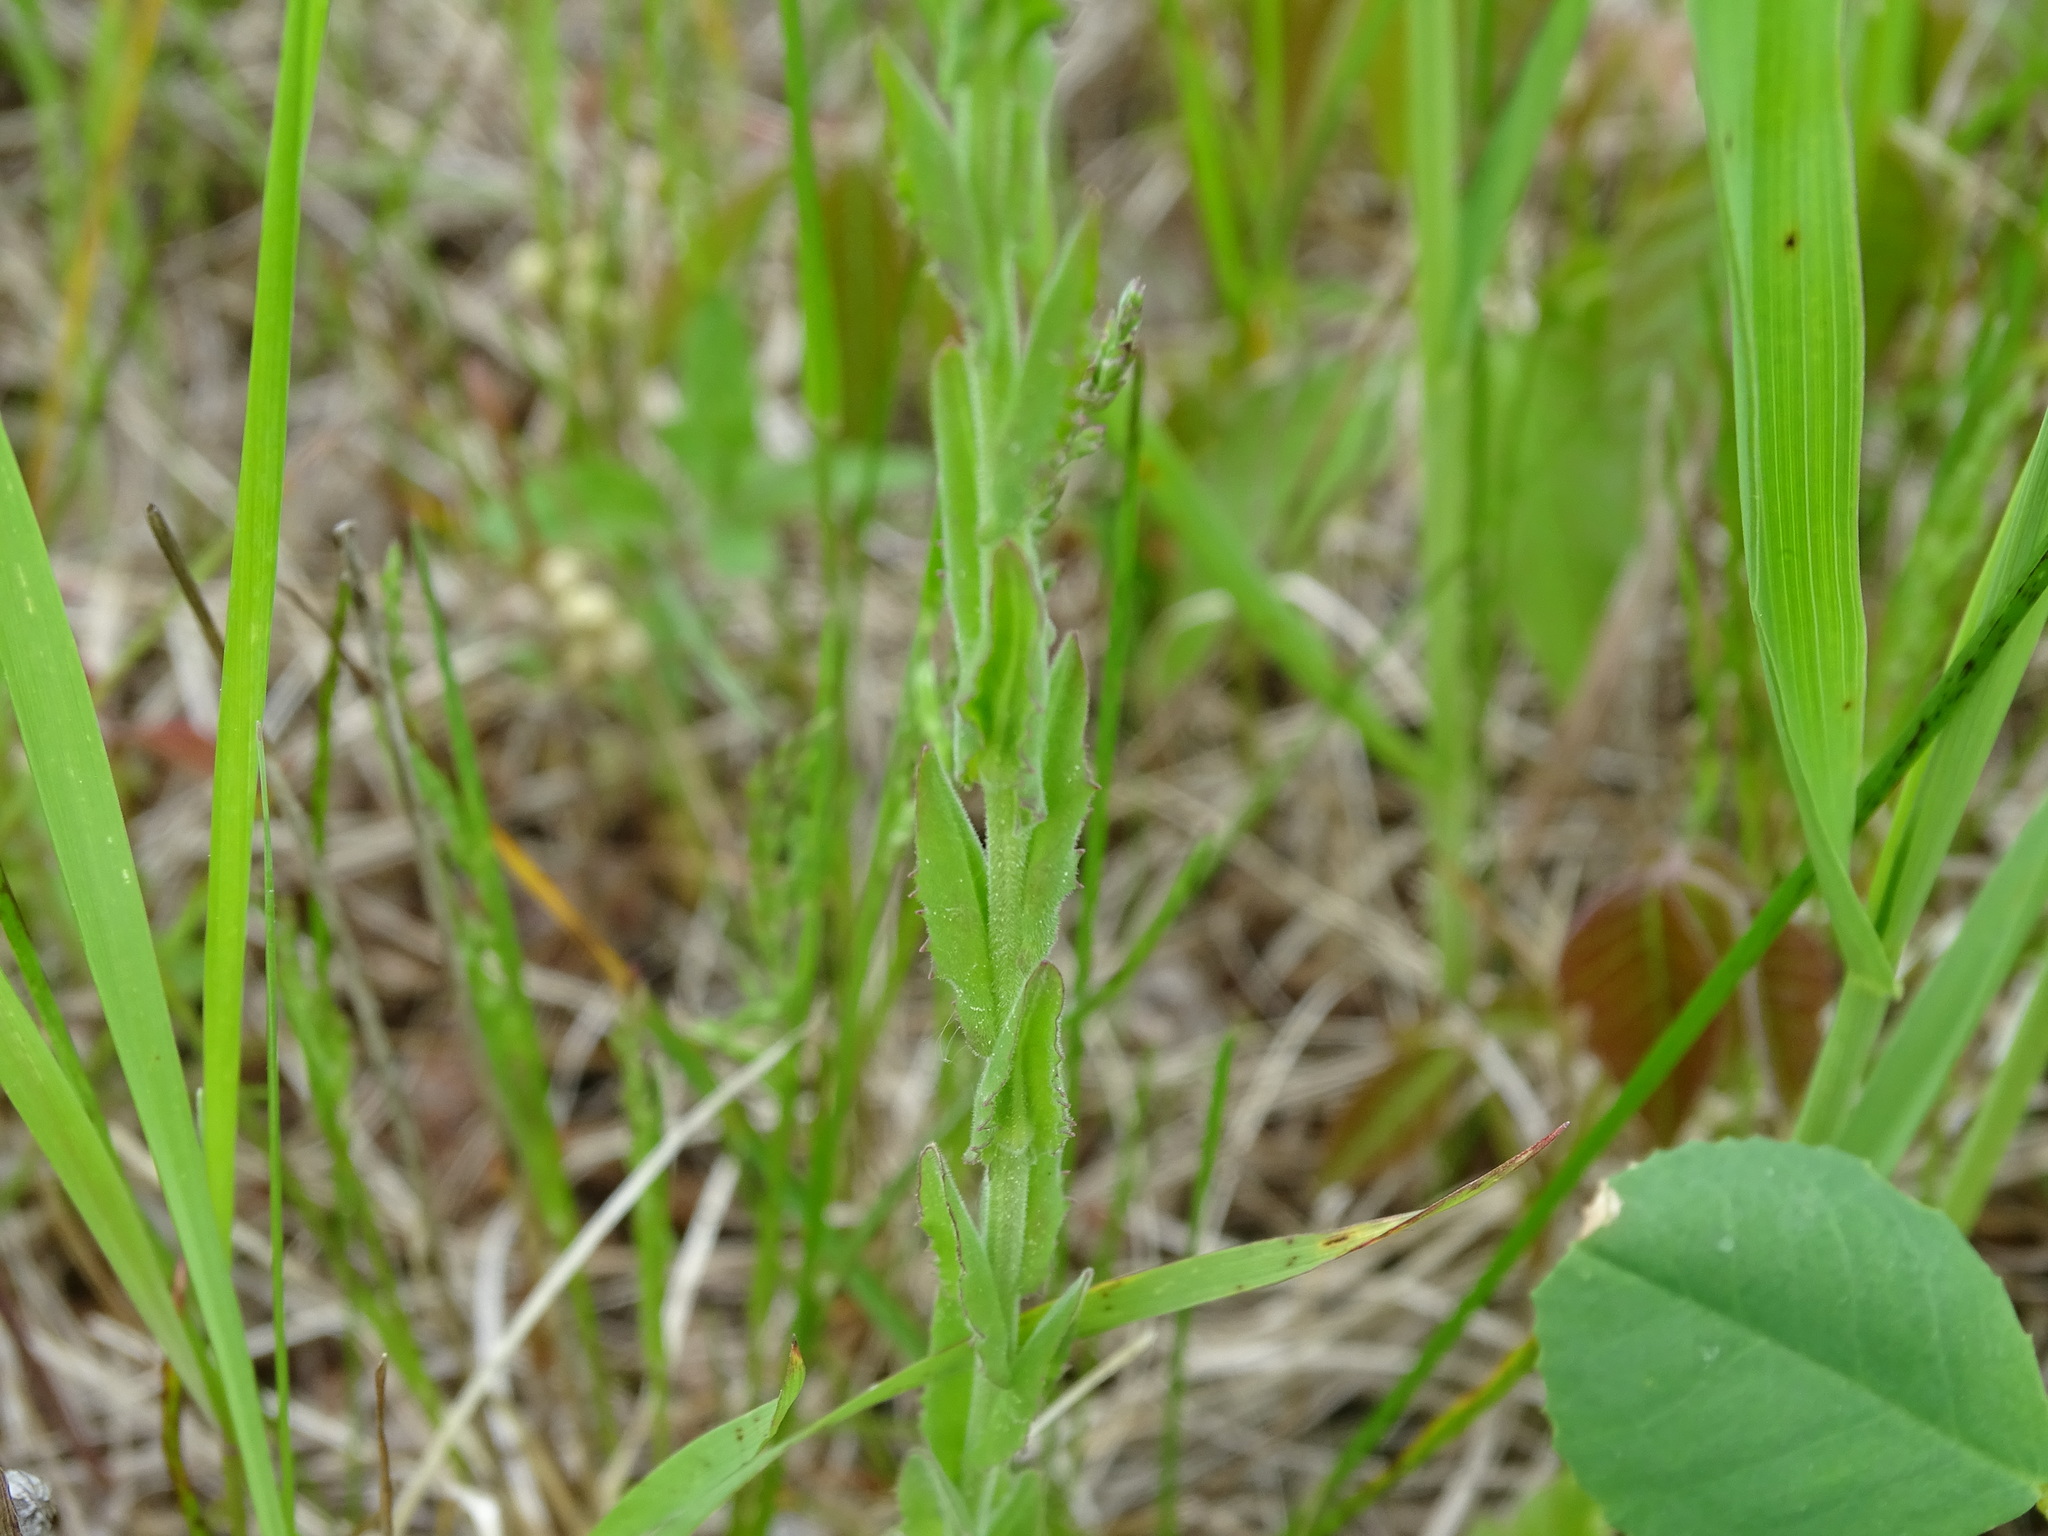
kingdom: Plantae
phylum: Tracheophyta
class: Magnoliopsida
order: Brassicales
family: Brassicaceae
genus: Lepidium
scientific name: Lepidium campestre
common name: Field pepperwort
